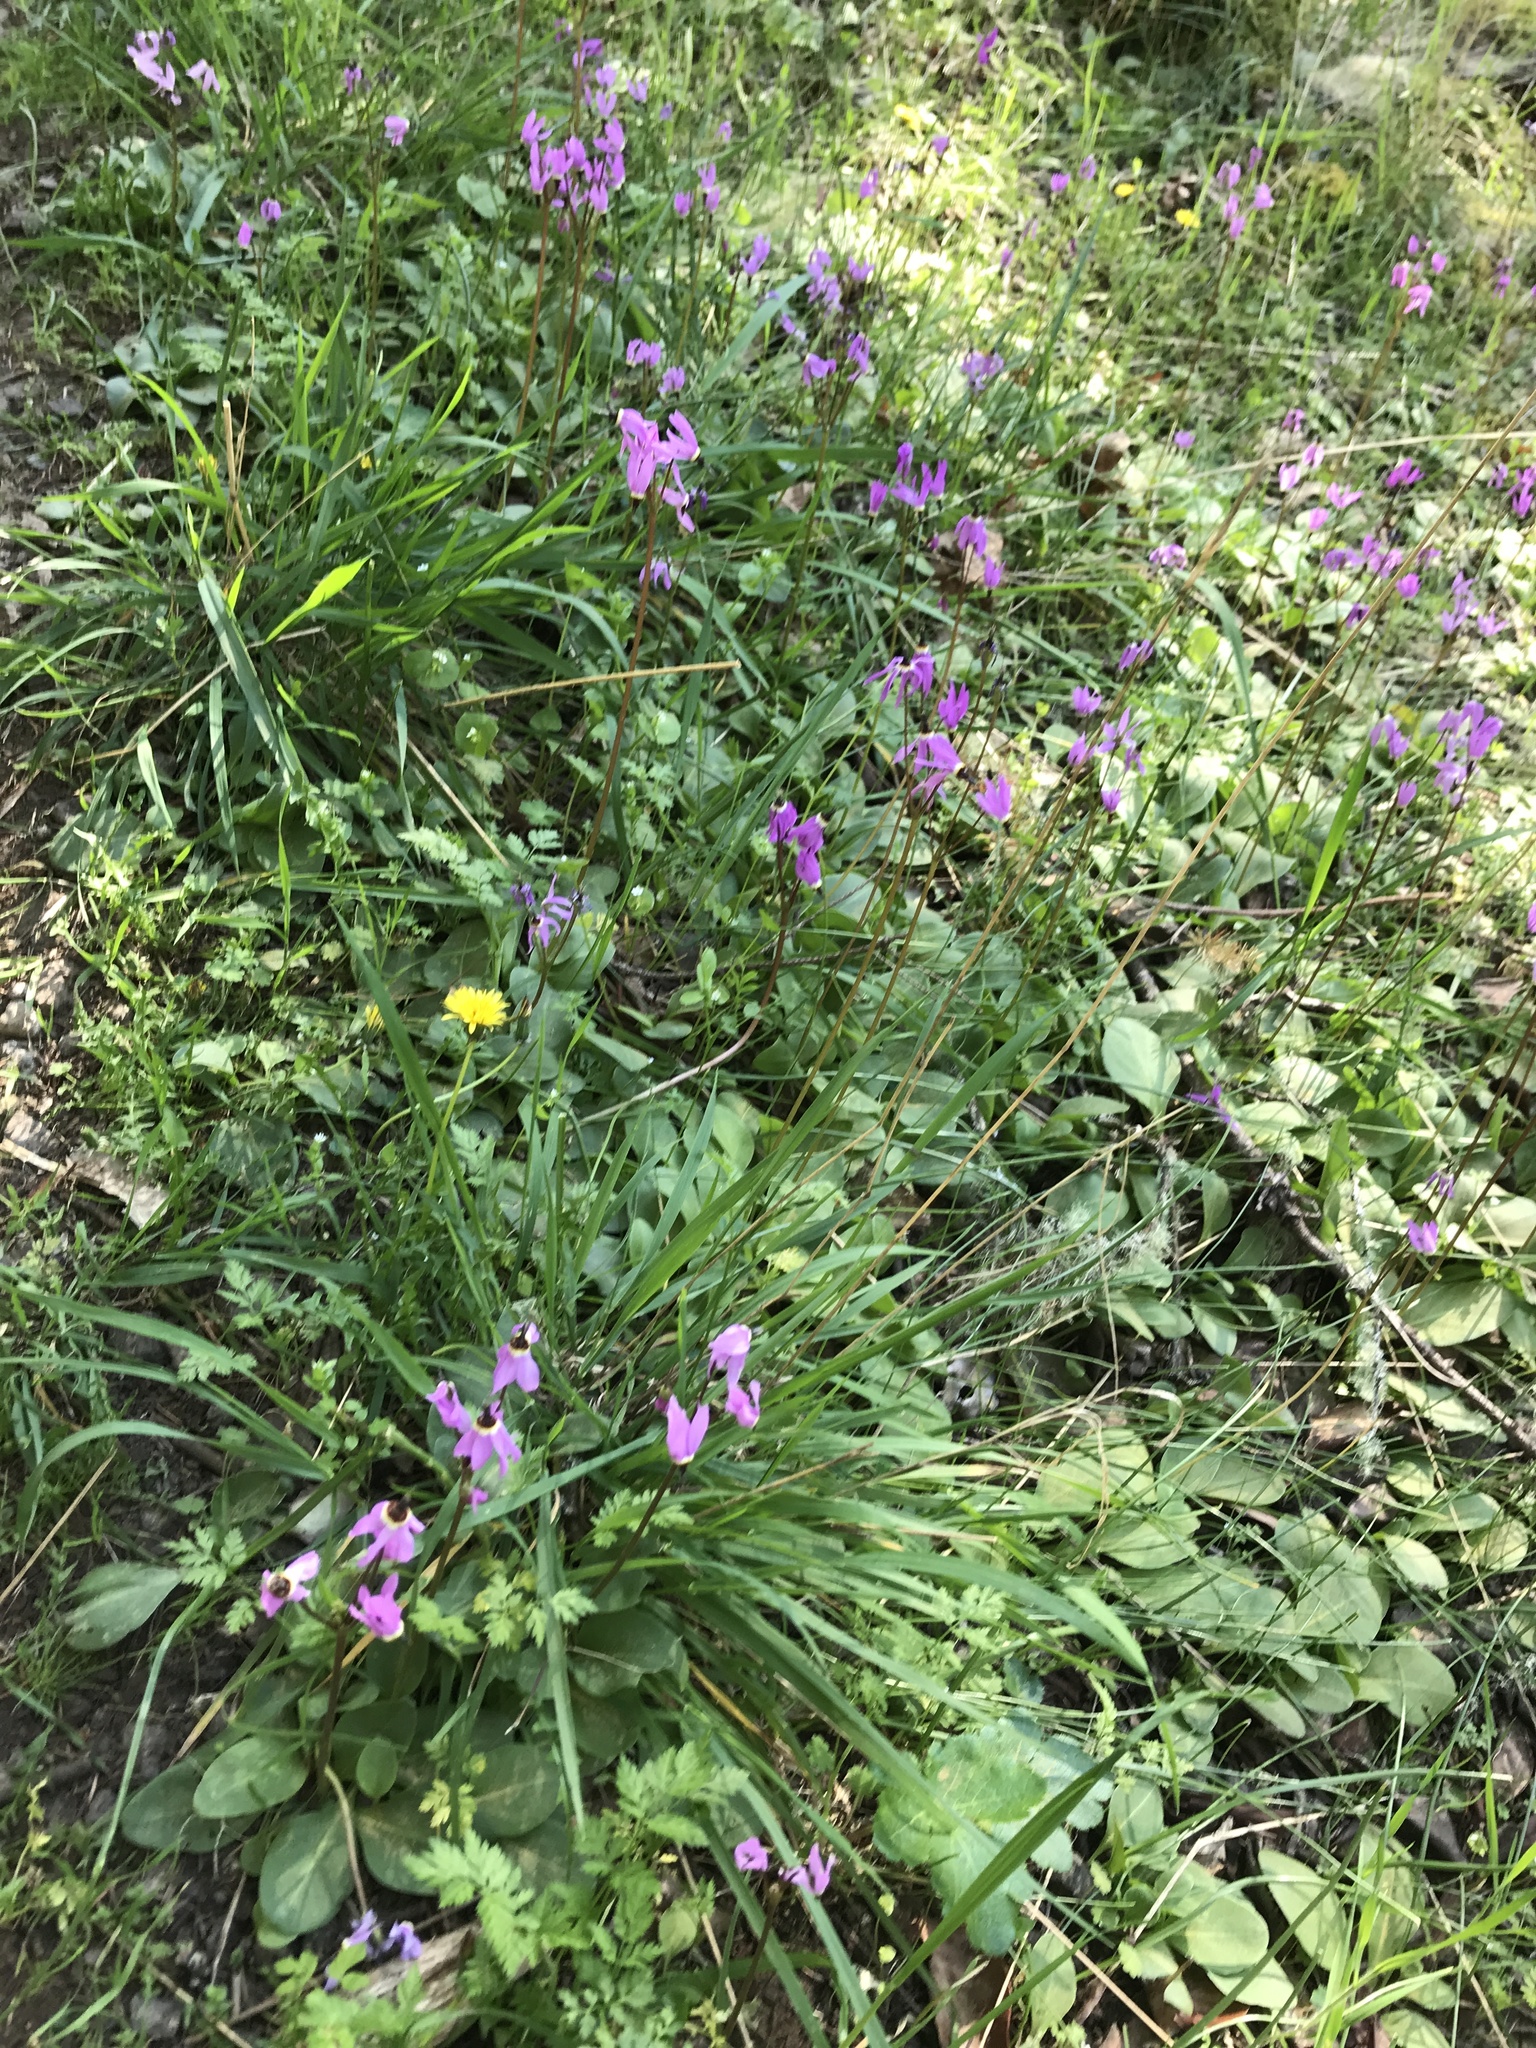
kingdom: Plantae
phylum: Tracheophyta
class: Magnoliopsida
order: Ericales
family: Primulaceae
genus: Dodecatheon
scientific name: Dodecatheon hendersonii
